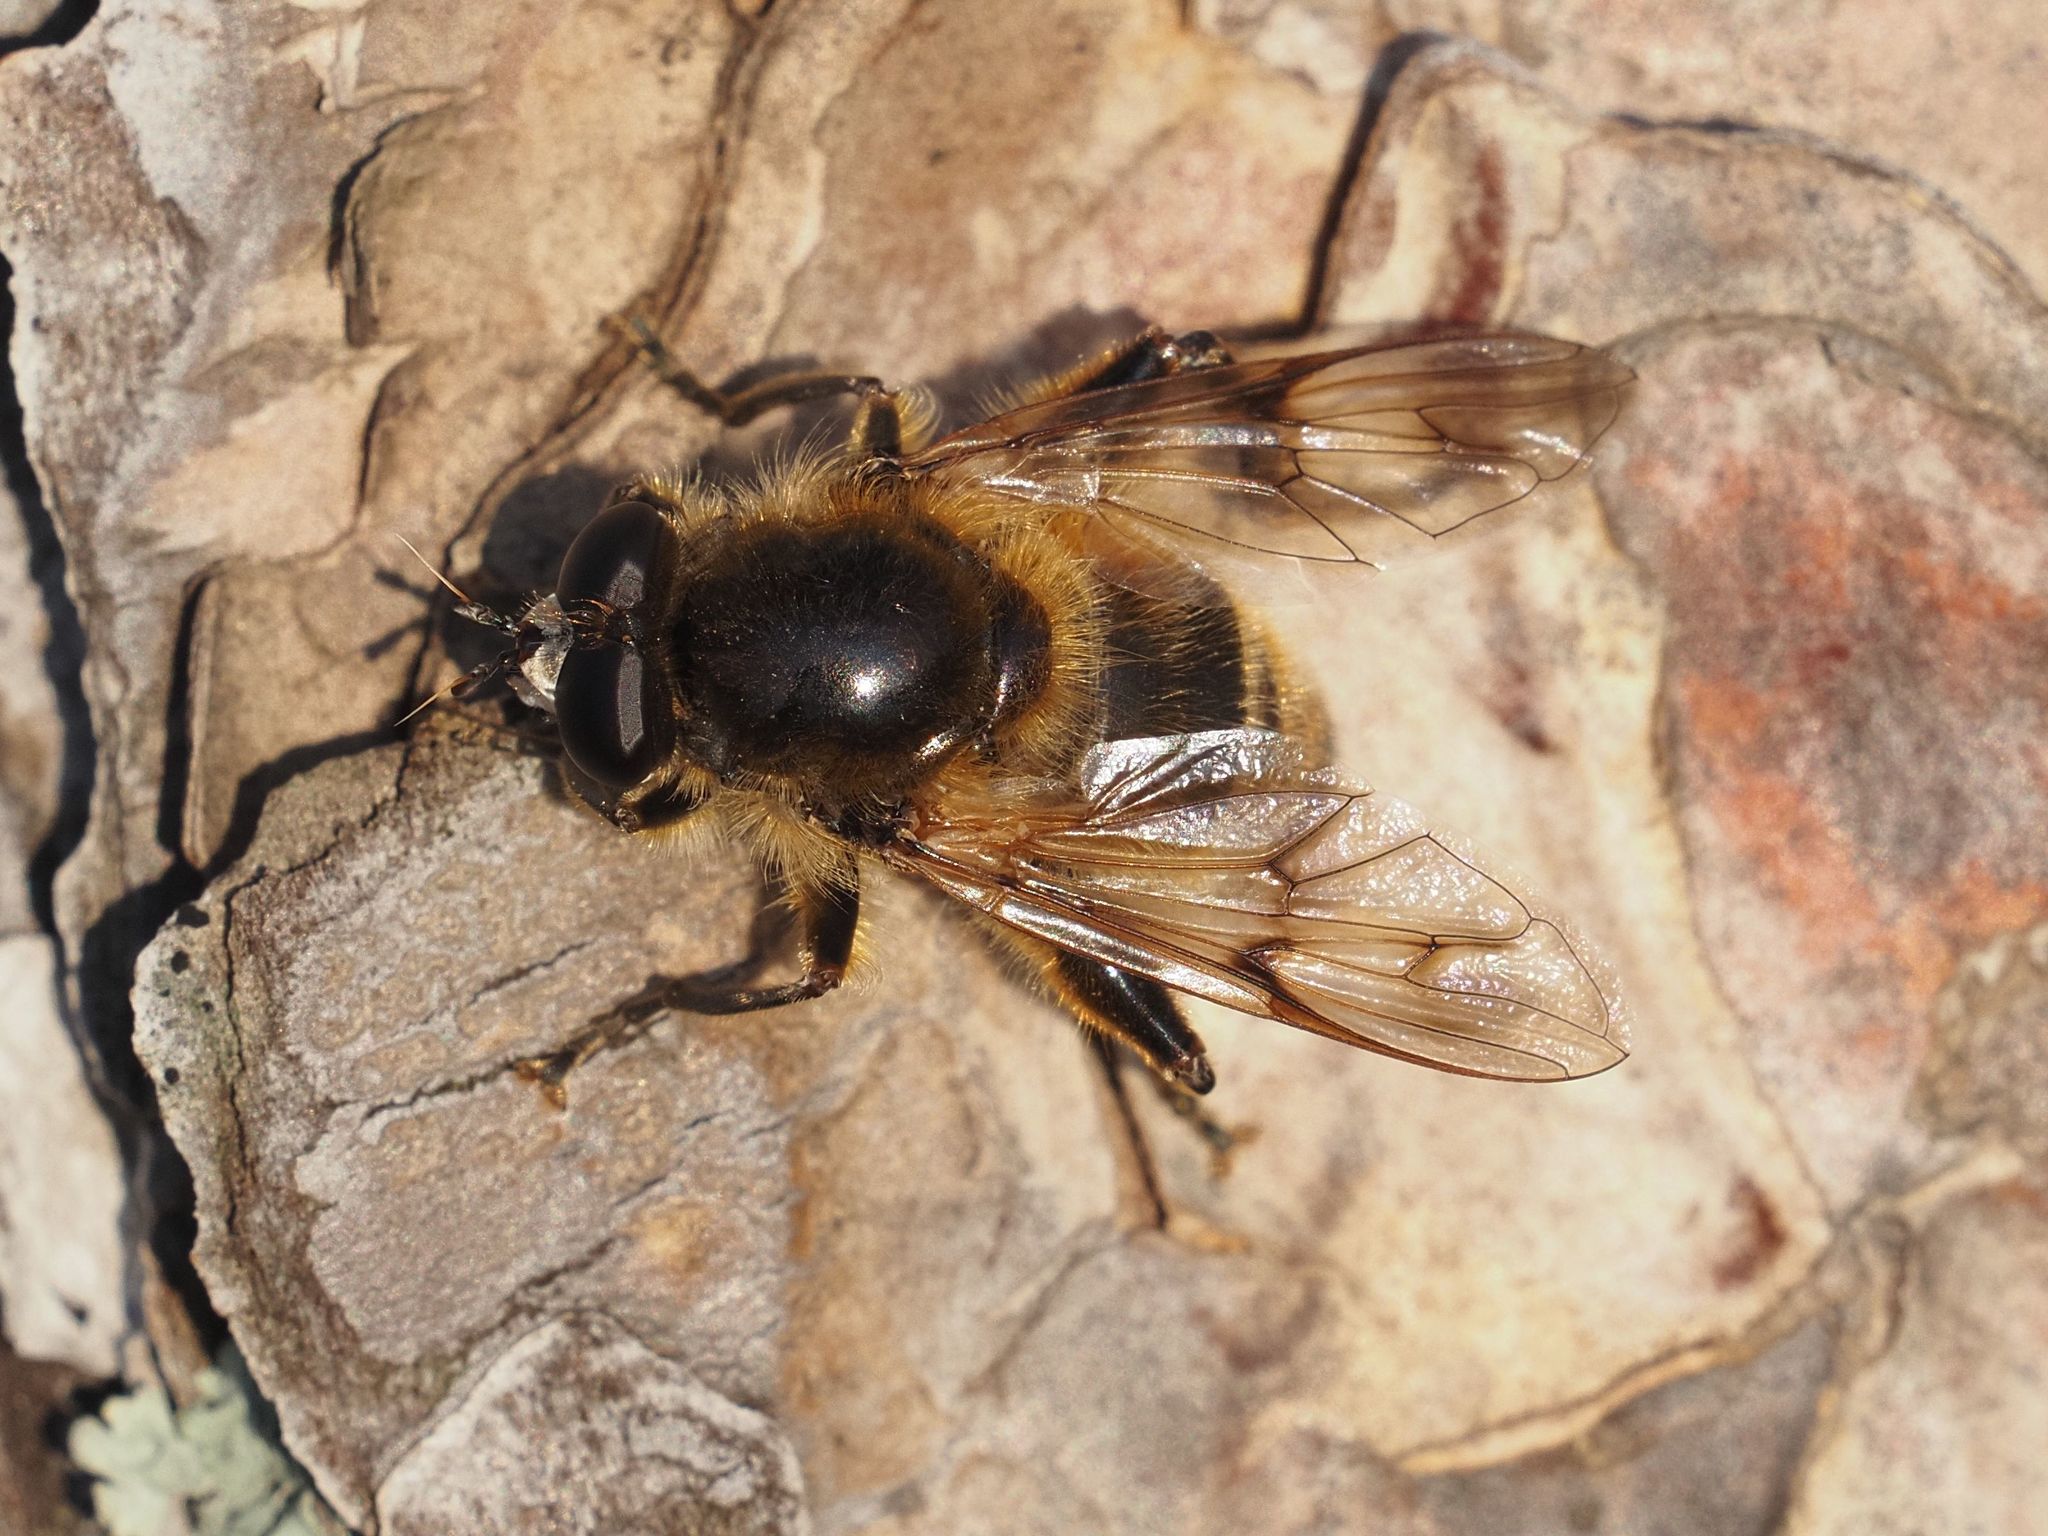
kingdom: Animalia
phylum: Arthropoda
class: Insecta
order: Diptera
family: Syrphidae
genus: Brachypalpus
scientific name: Brachypalpus valgus
